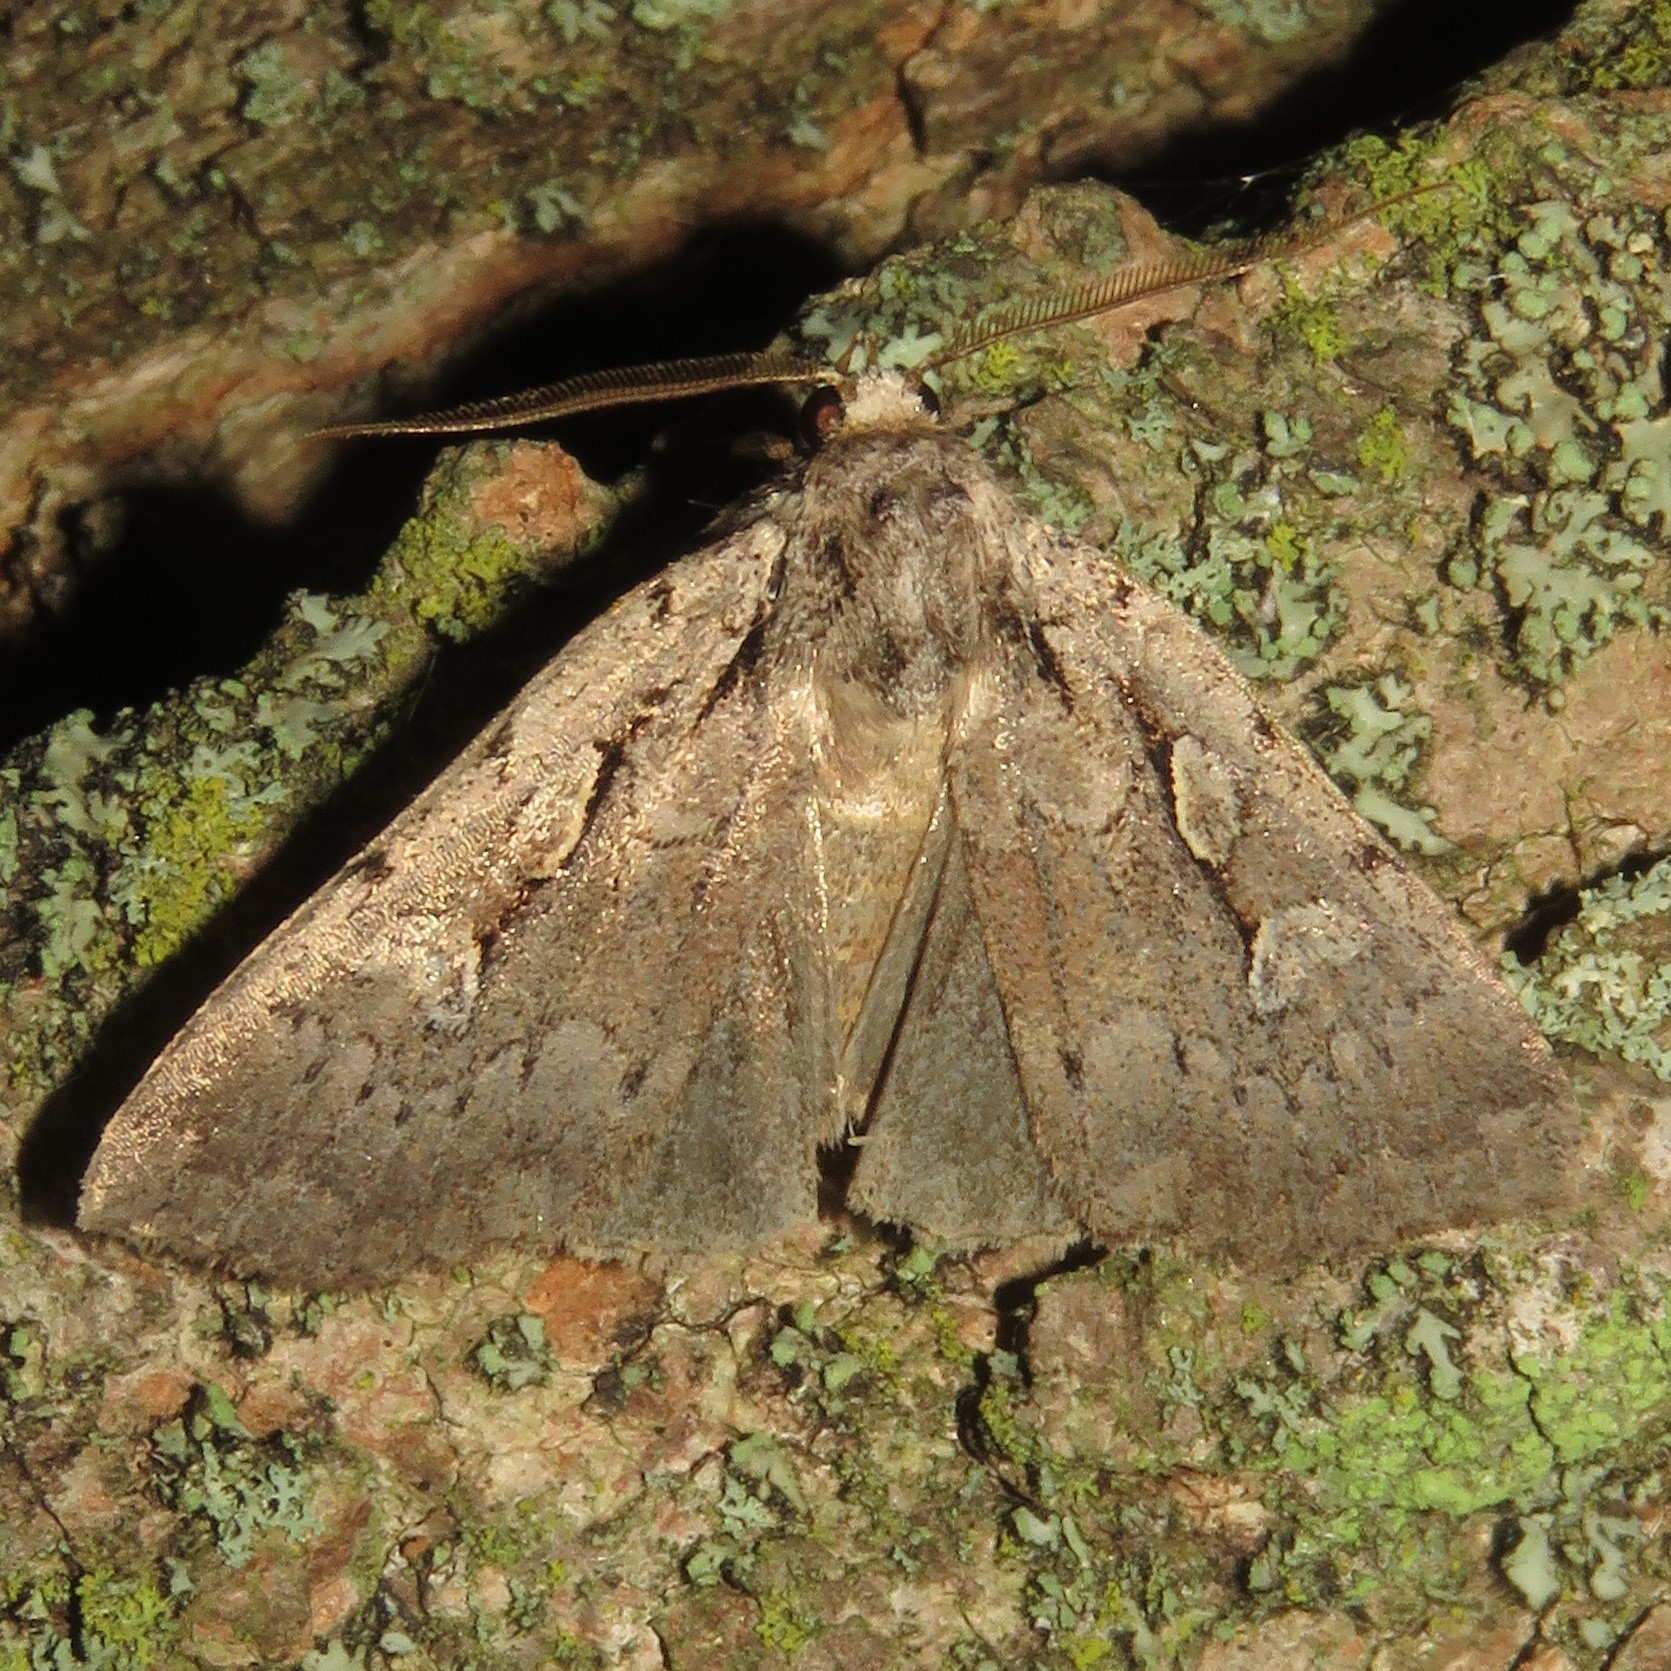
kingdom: Animalia
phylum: Arthropoda
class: Insecta
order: Lepidoptera
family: Noctuidae
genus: Xestia
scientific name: Xestia badicollis
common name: Northern variable dart
